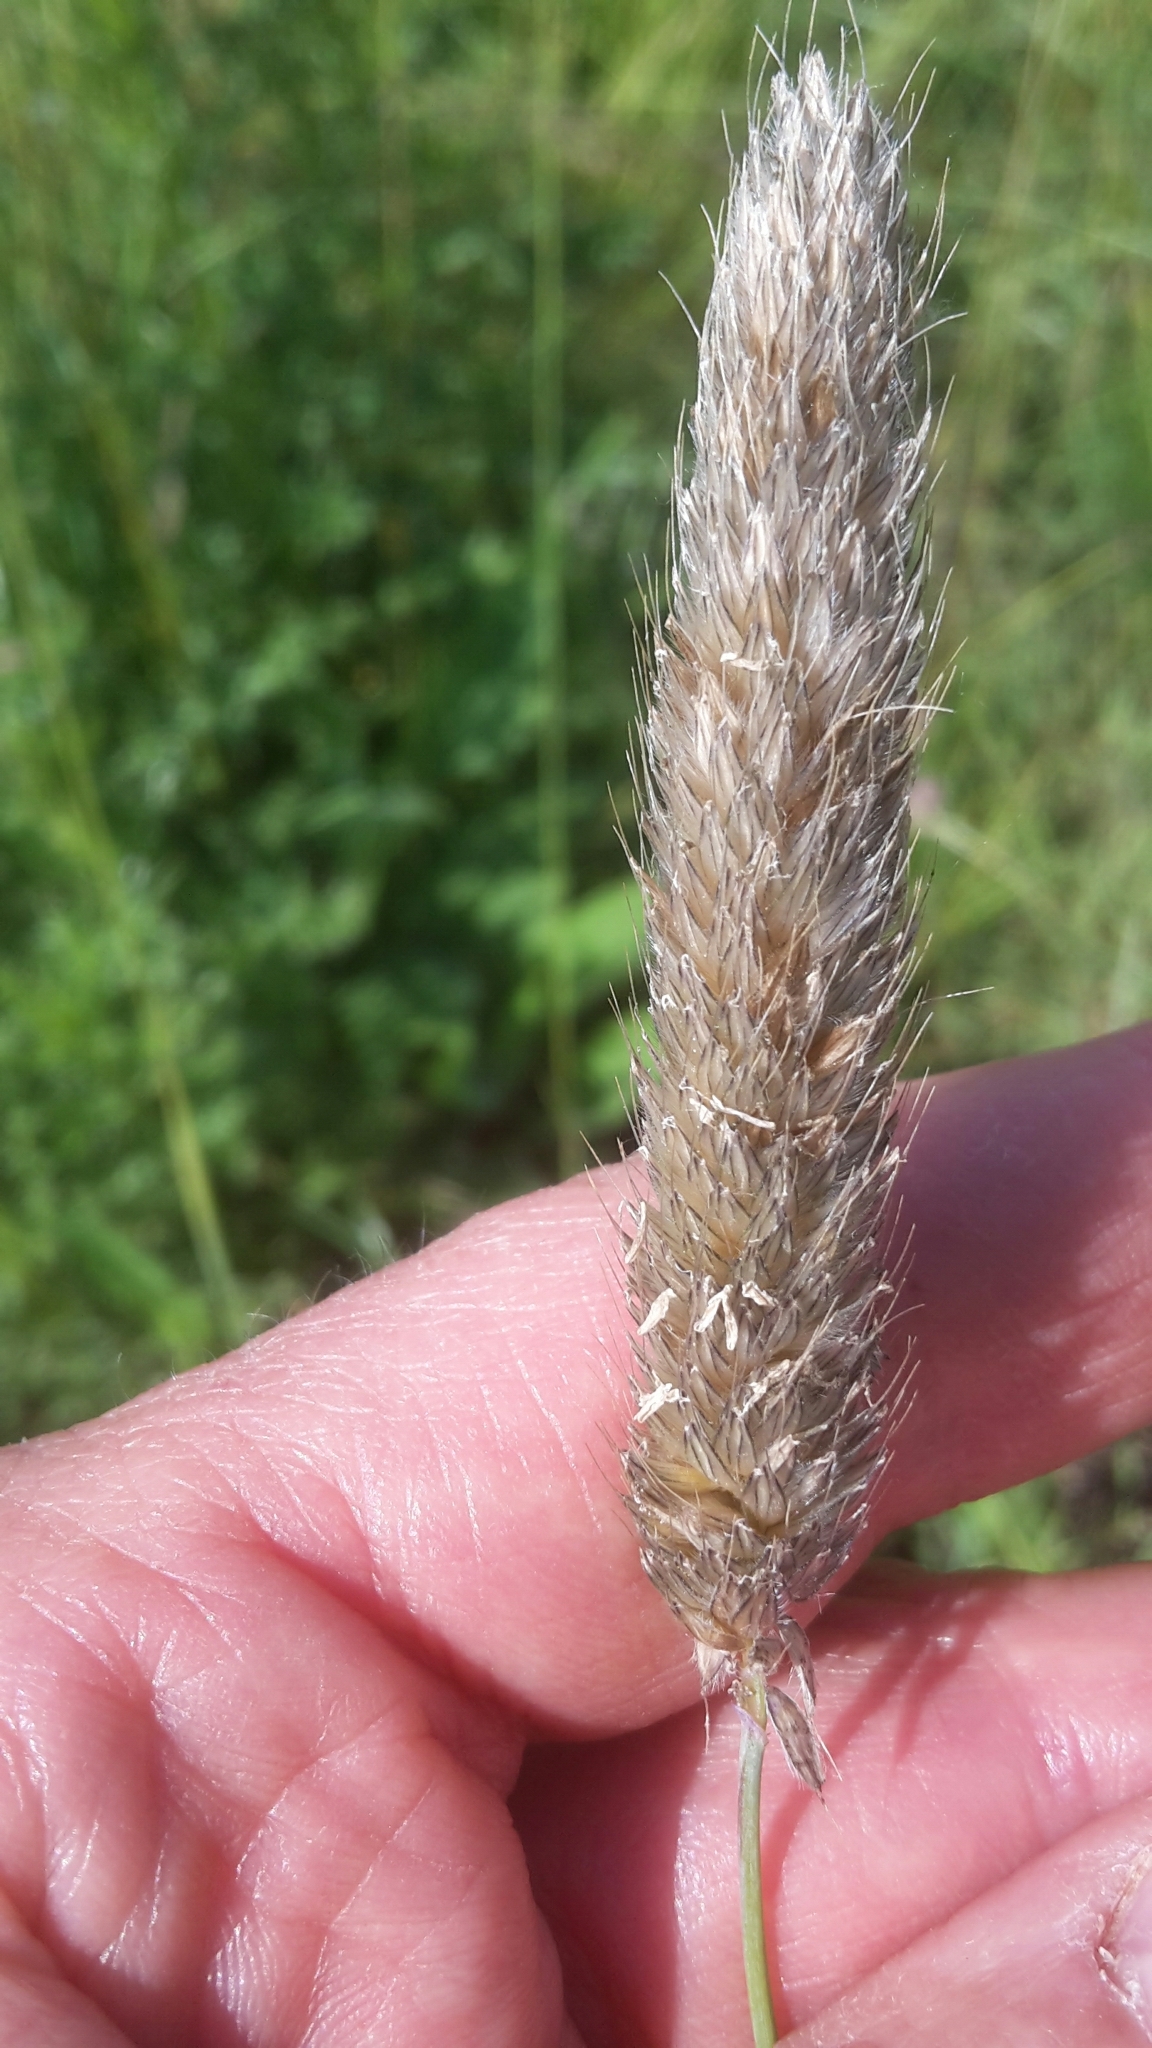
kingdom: Plantae
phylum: Tracheophyta
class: Liliopsida
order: Poales
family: Poaceae
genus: Alopecurus
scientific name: Alopecurus pratensis
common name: Meadow foxtail
